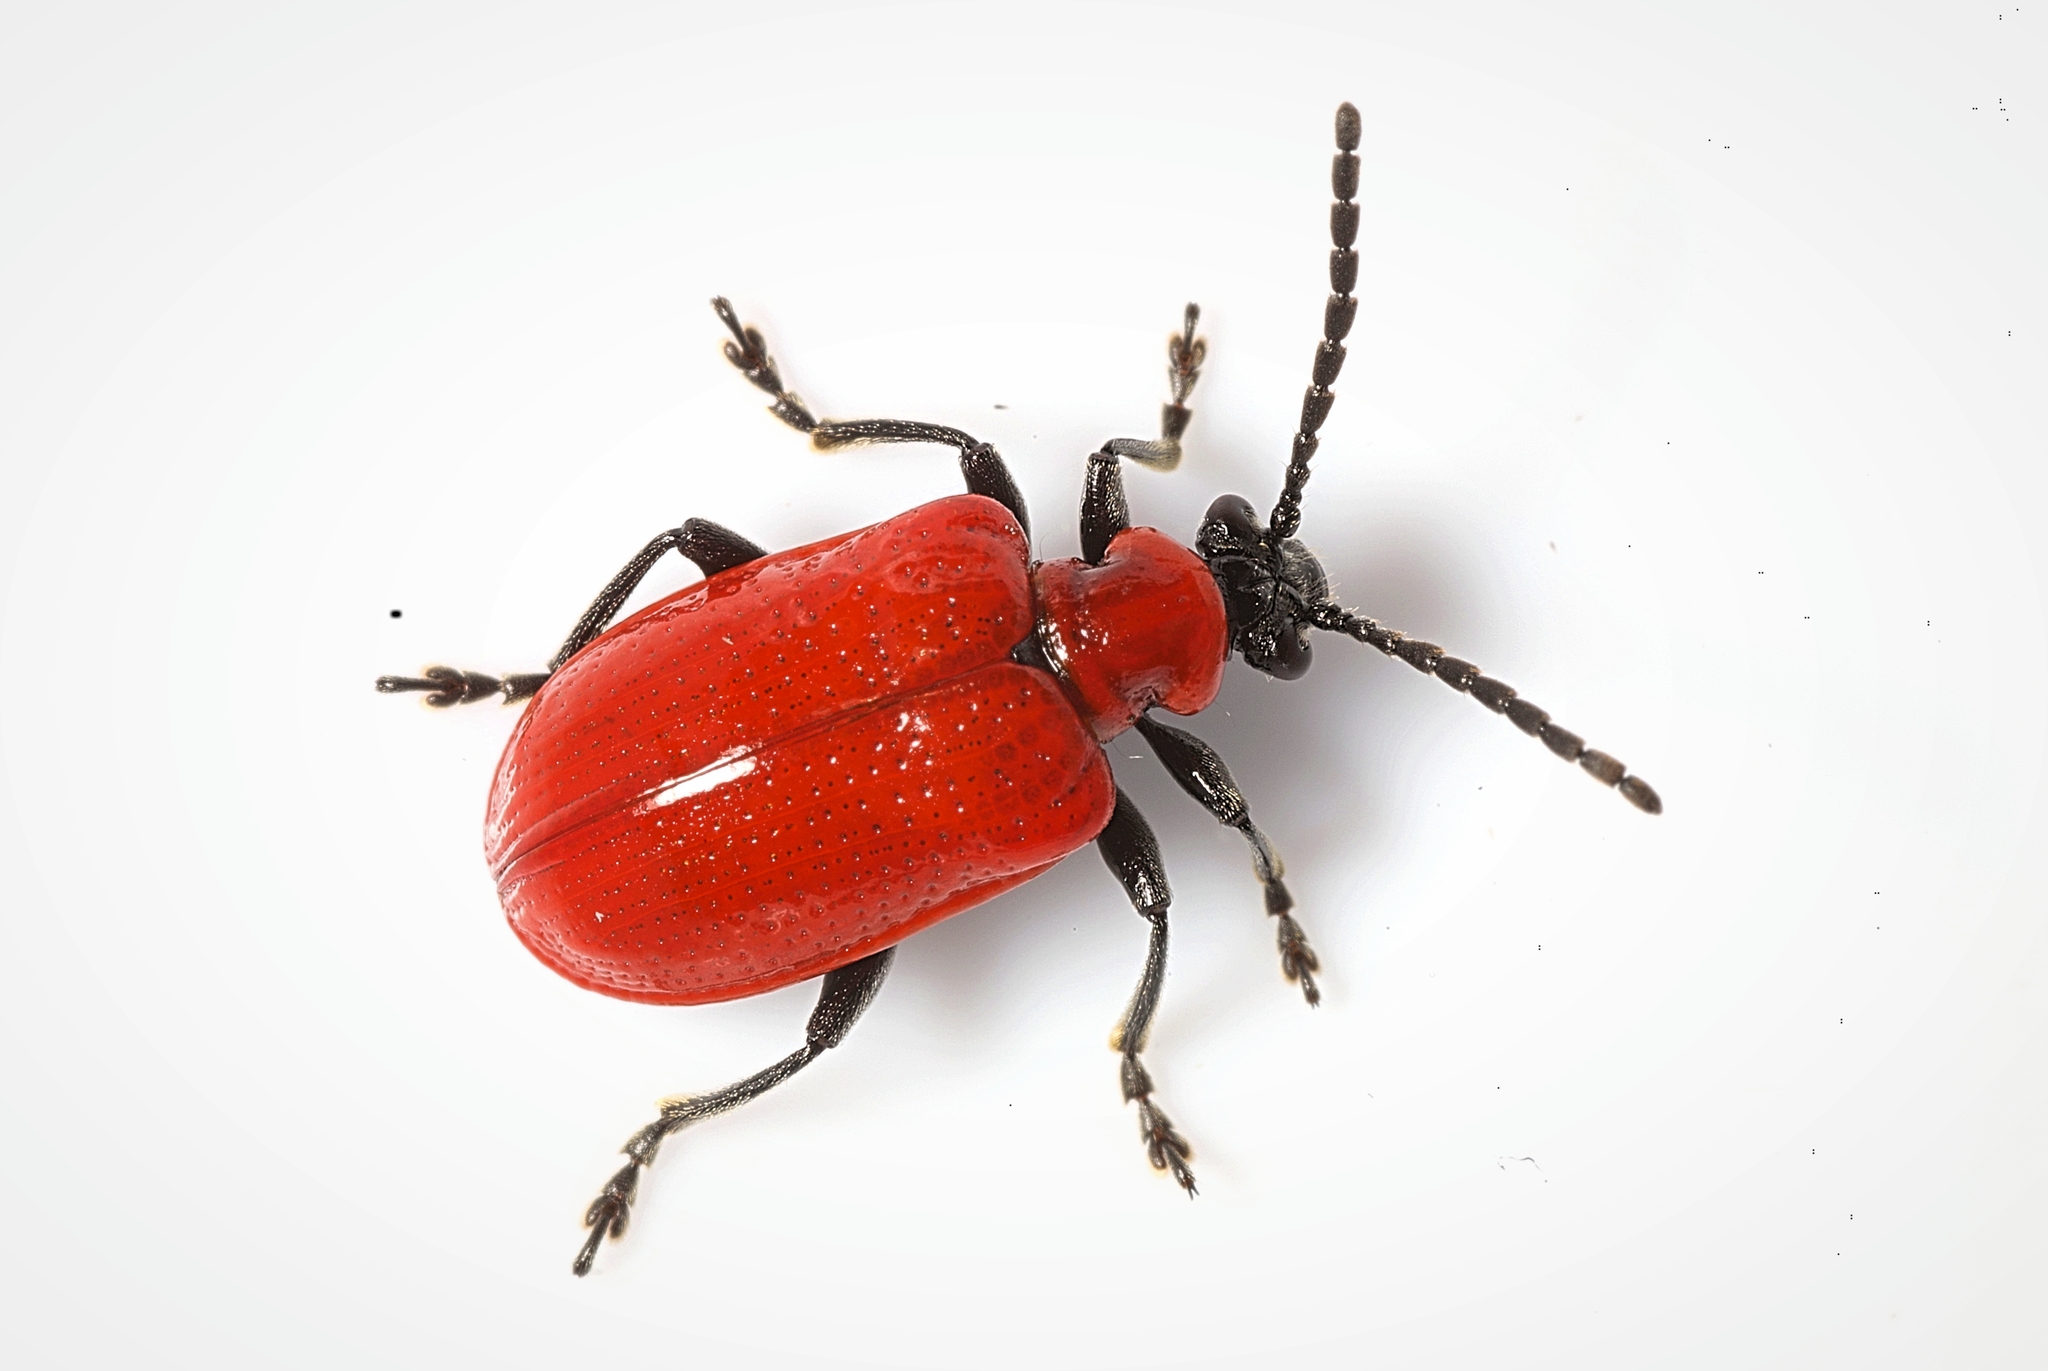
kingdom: Animalia
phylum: Arthropoda
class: Insecta
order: Coleoptera
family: Chrysomelidae
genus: Lilioceris
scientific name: Lilioceris lilii
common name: Lily beetle
